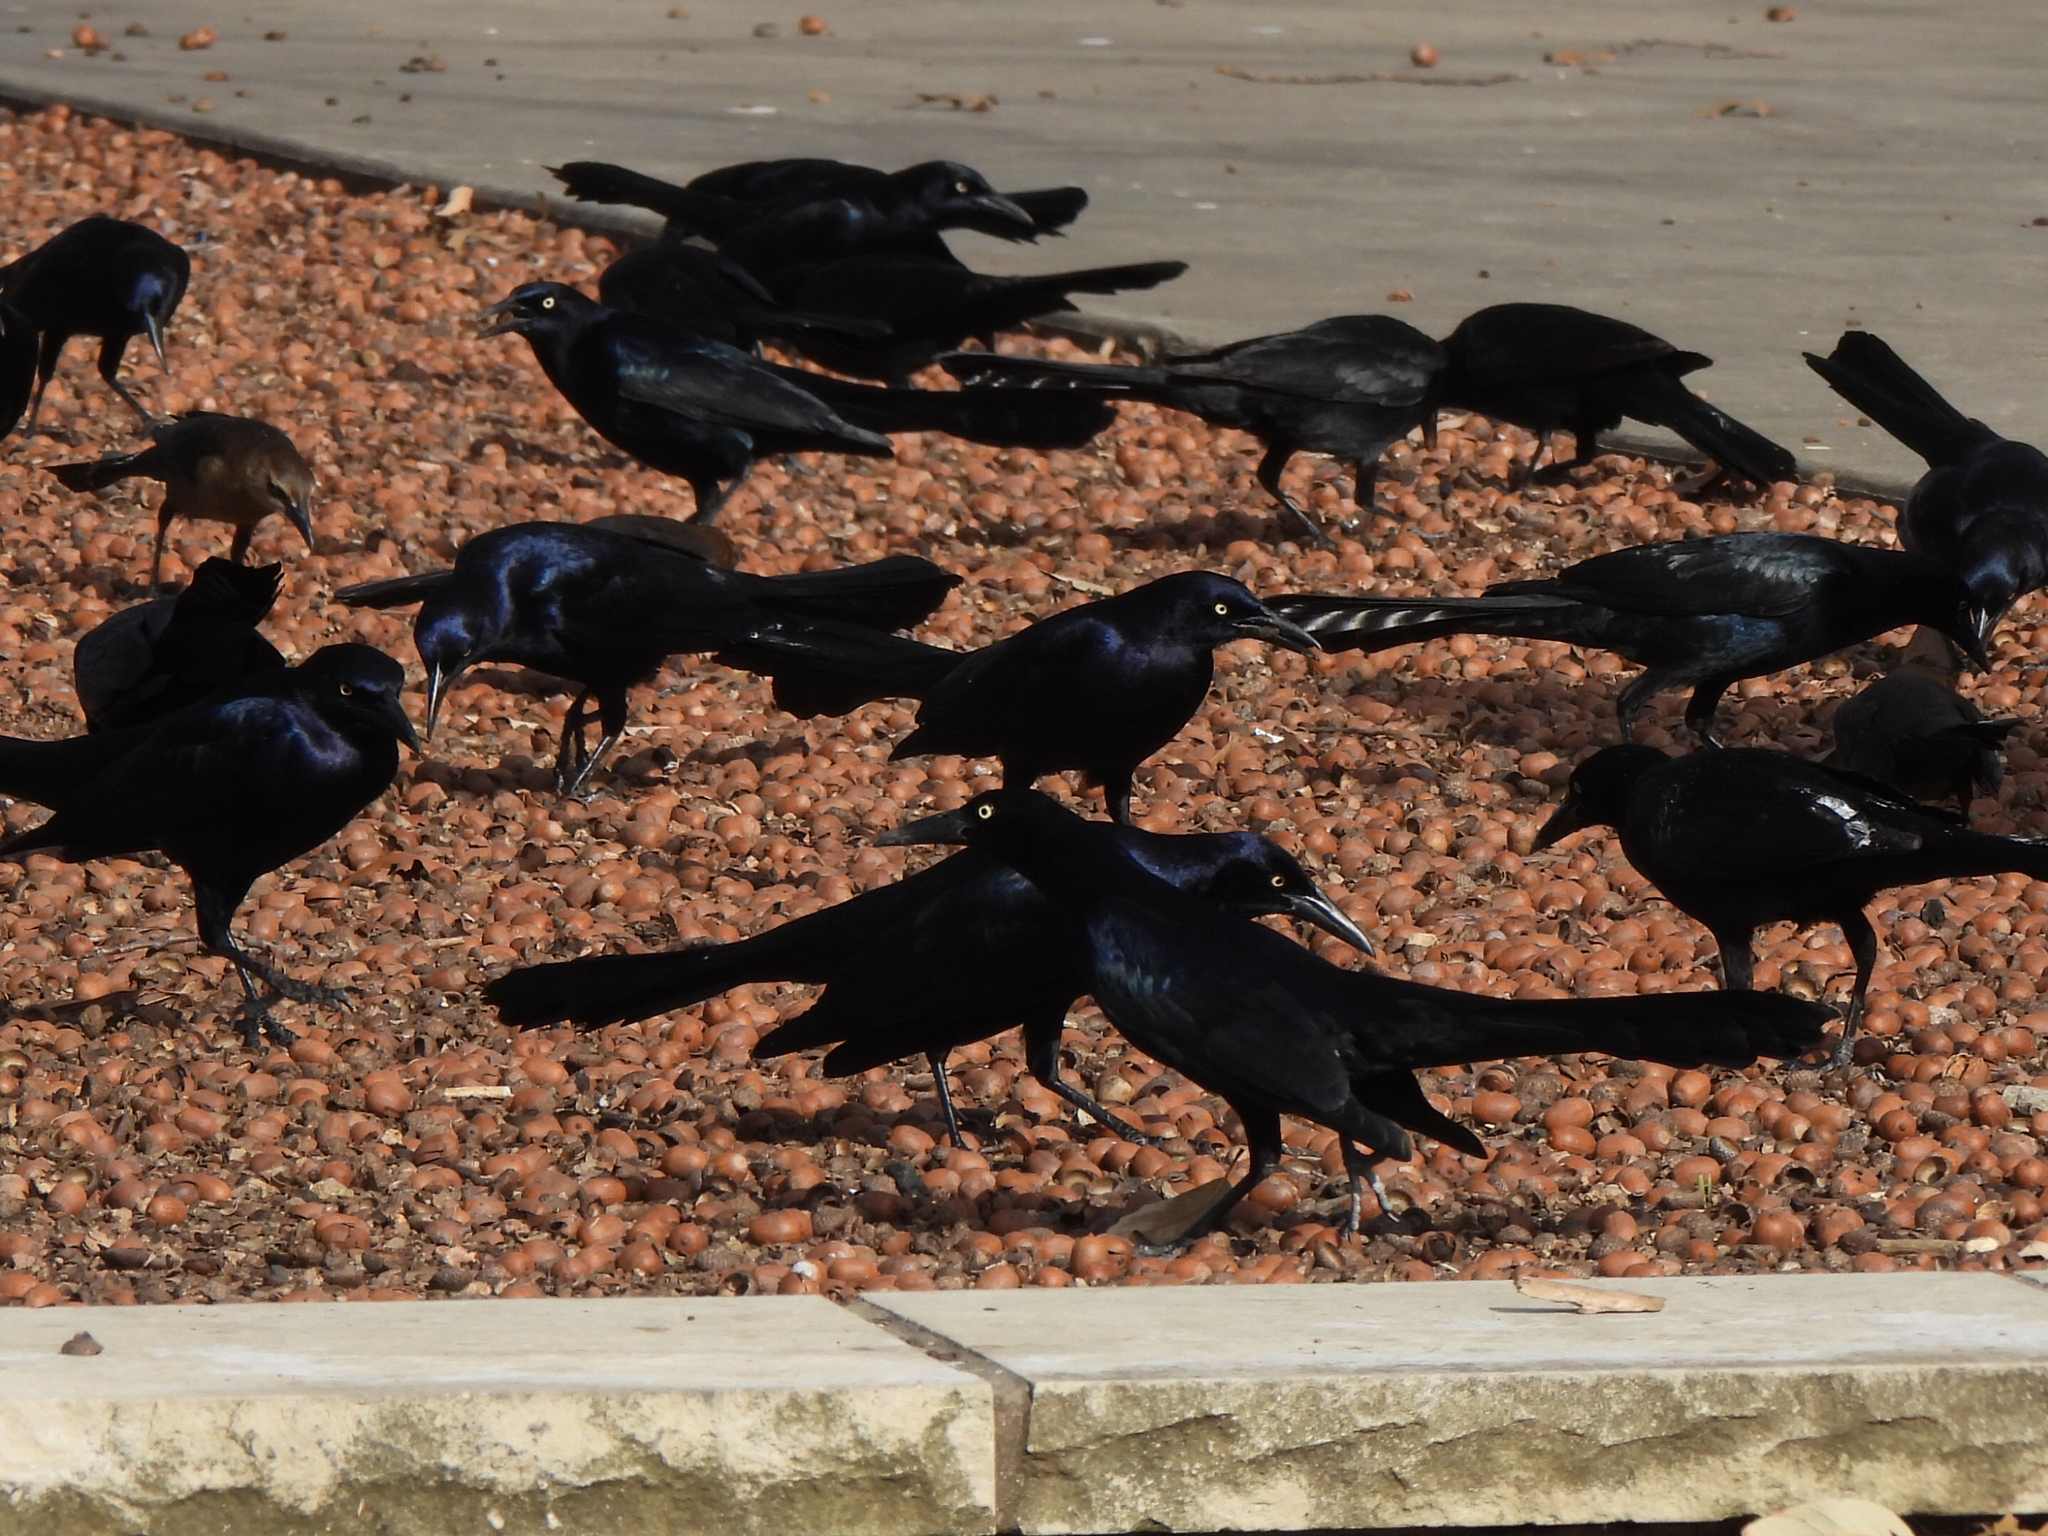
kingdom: Animalia
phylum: Chordata
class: Aves
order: Passeriformes
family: Icteridae
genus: Quiscalus
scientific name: Quiscalus mexicanus
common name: Great-tailed grackle
